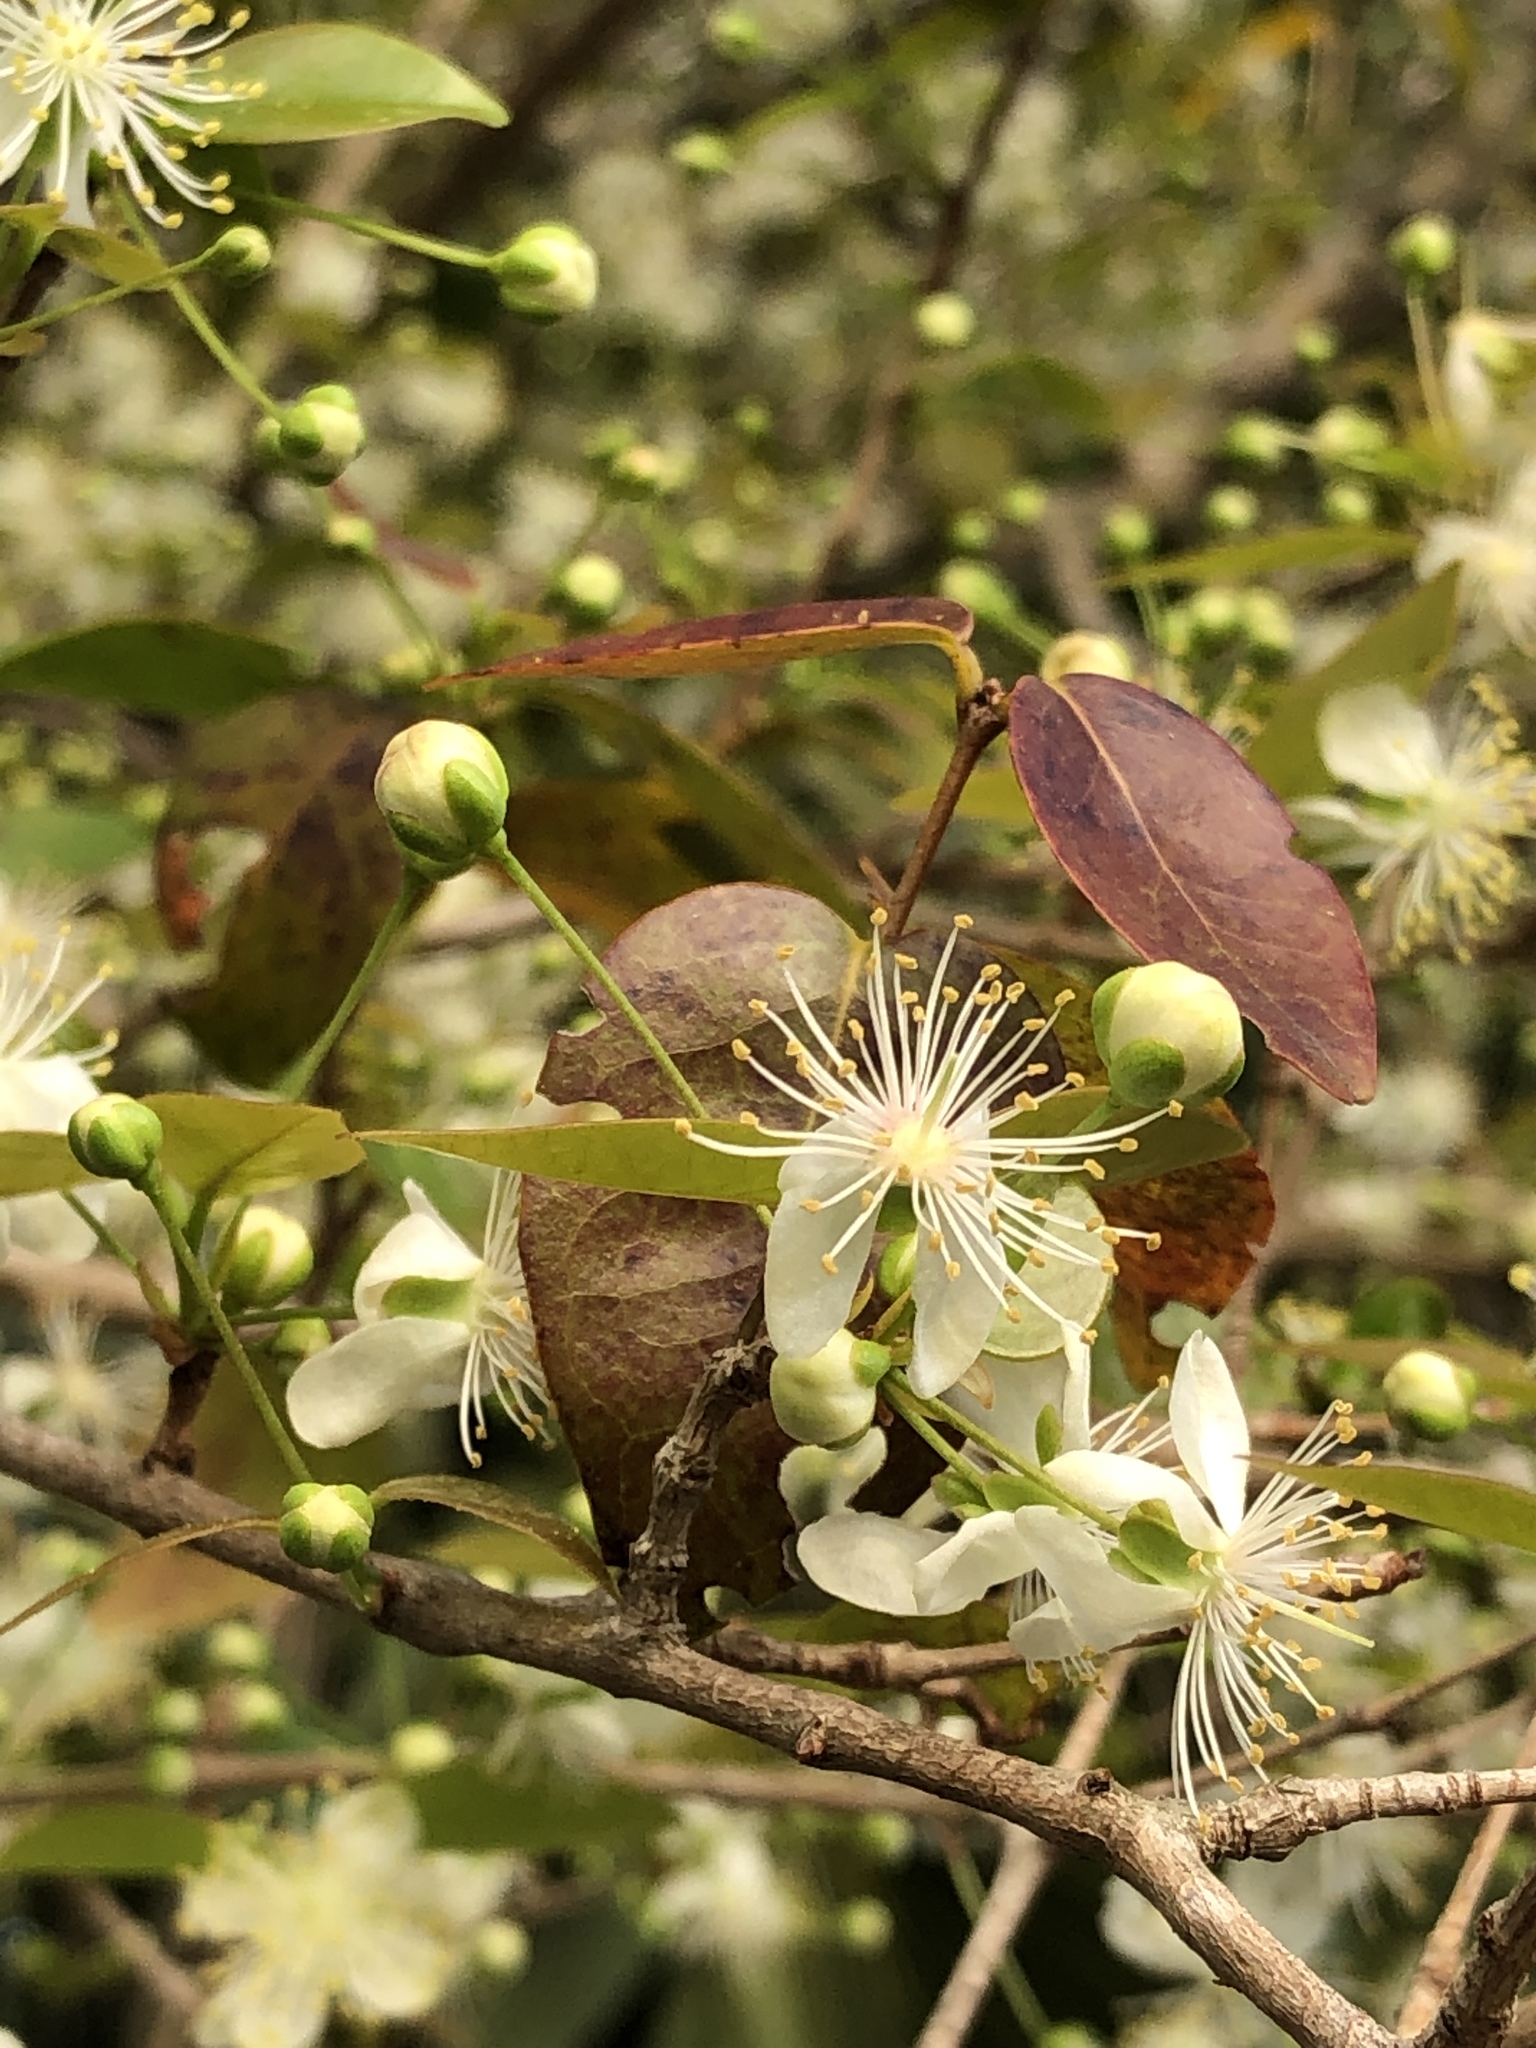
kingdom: Plantae
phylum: Tracheophyta
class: Magnoliopsida
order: Myrtales
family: Myrtaceae
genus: Eugenia
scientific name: Eugenia uniflora
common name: Surinam cherry
